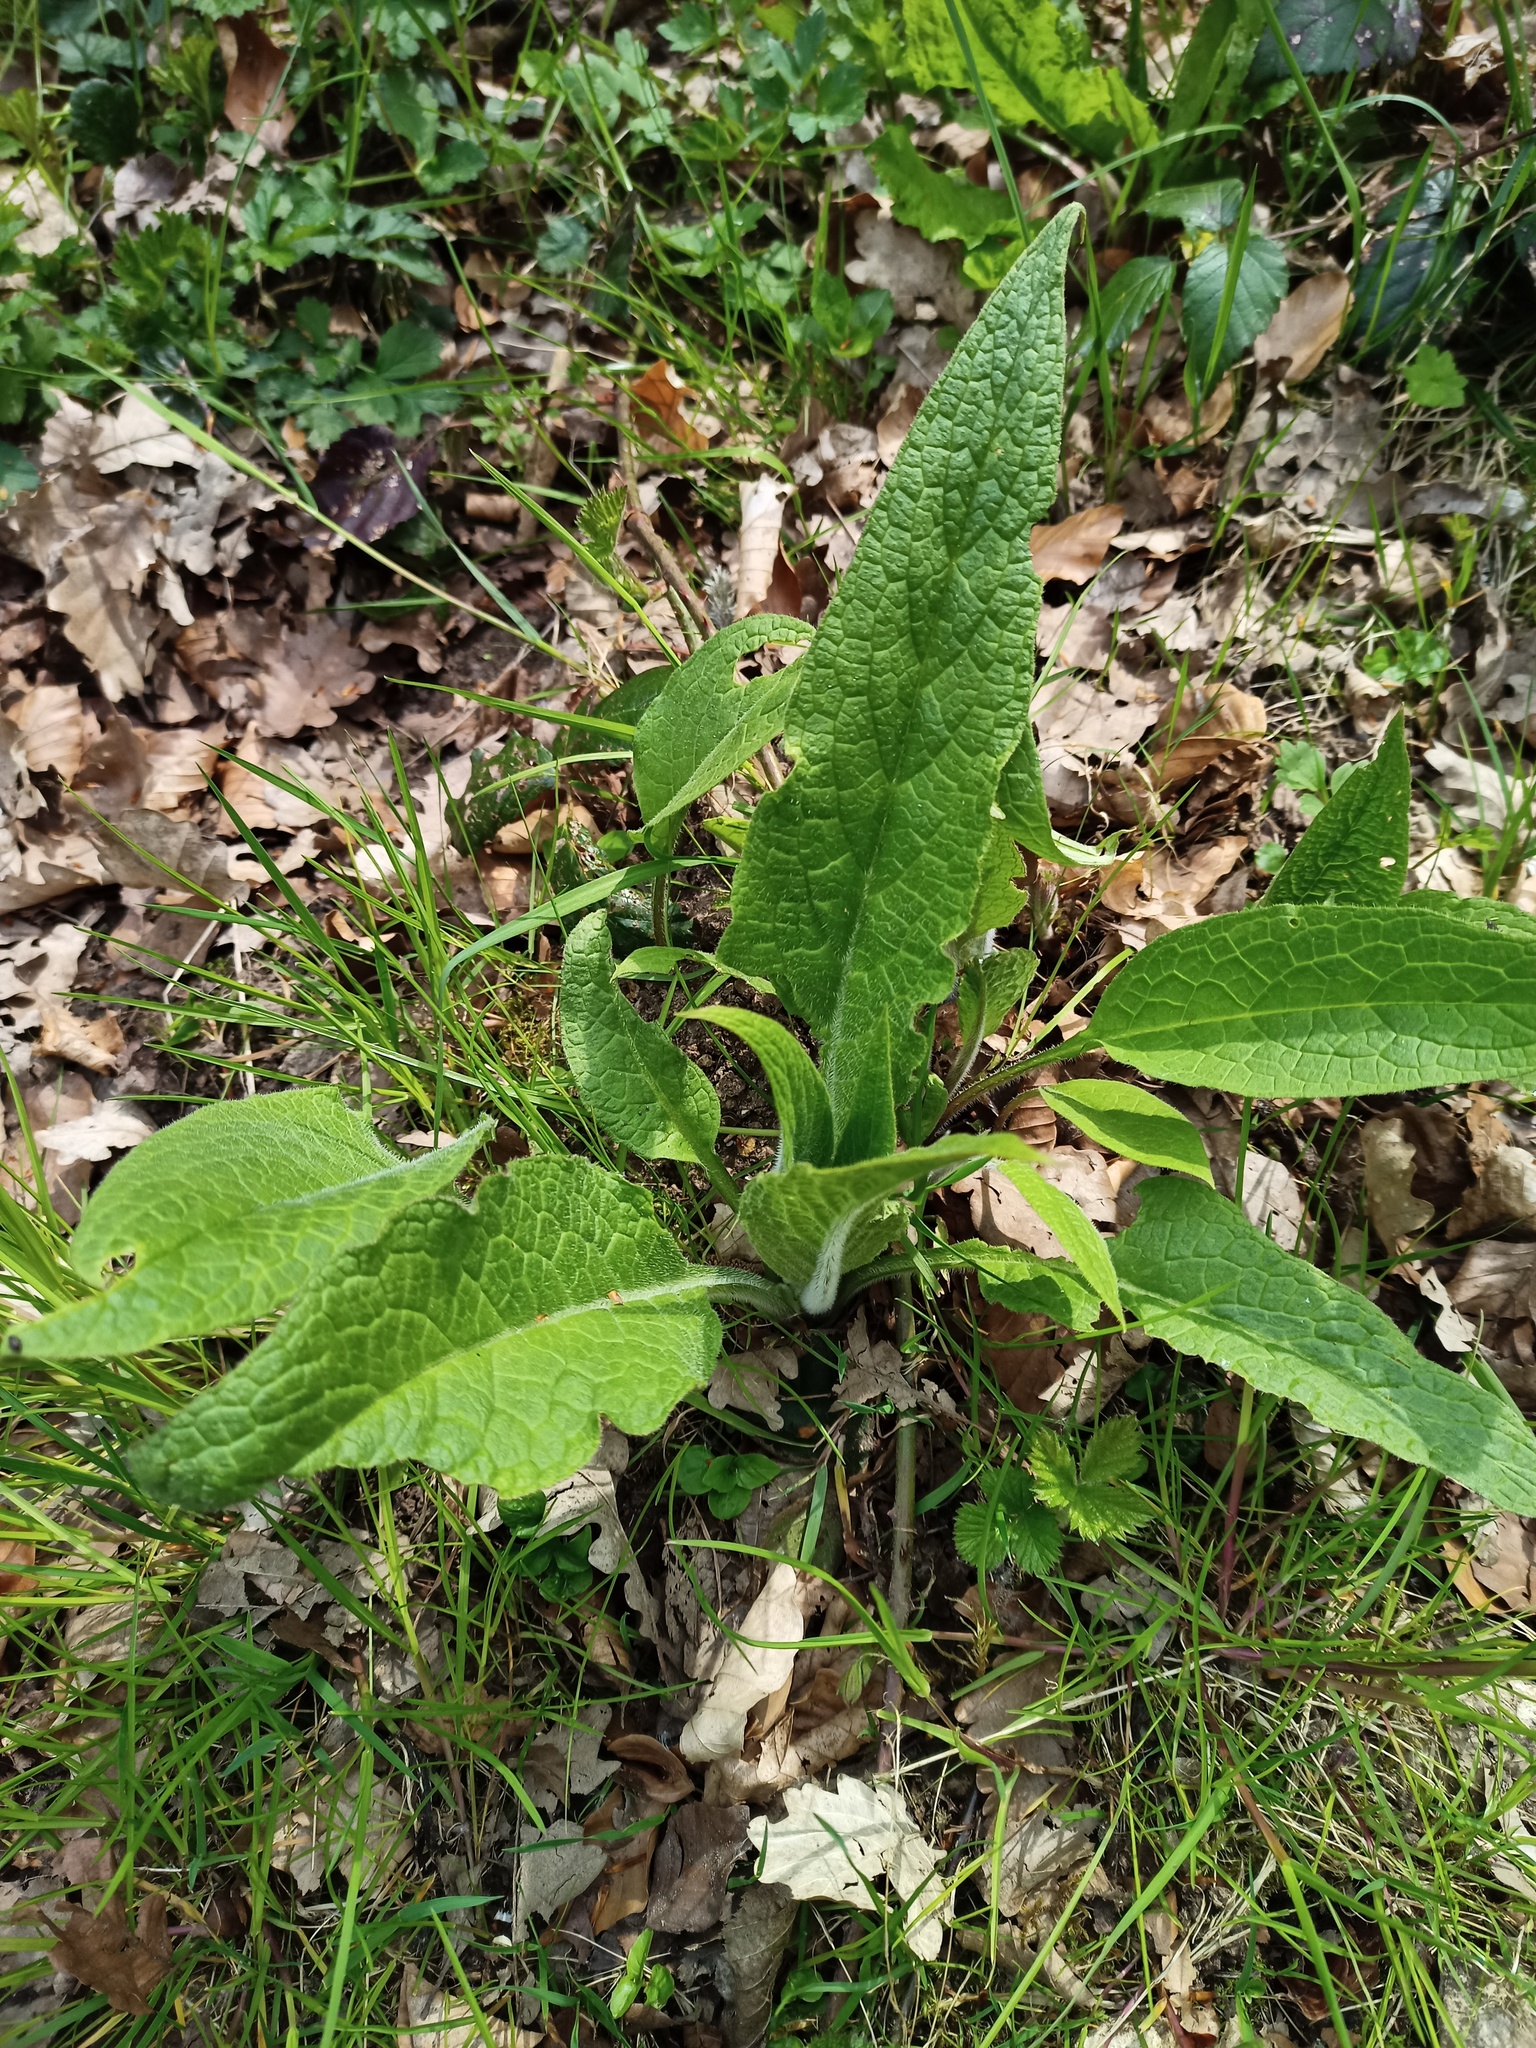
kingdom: Plantae
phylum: Tracheophyta
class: Magnoliopsida
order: Boraginales
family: Boraginaceae
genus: Symphytum
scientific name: Symphytum officinale
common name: Common comfrey
